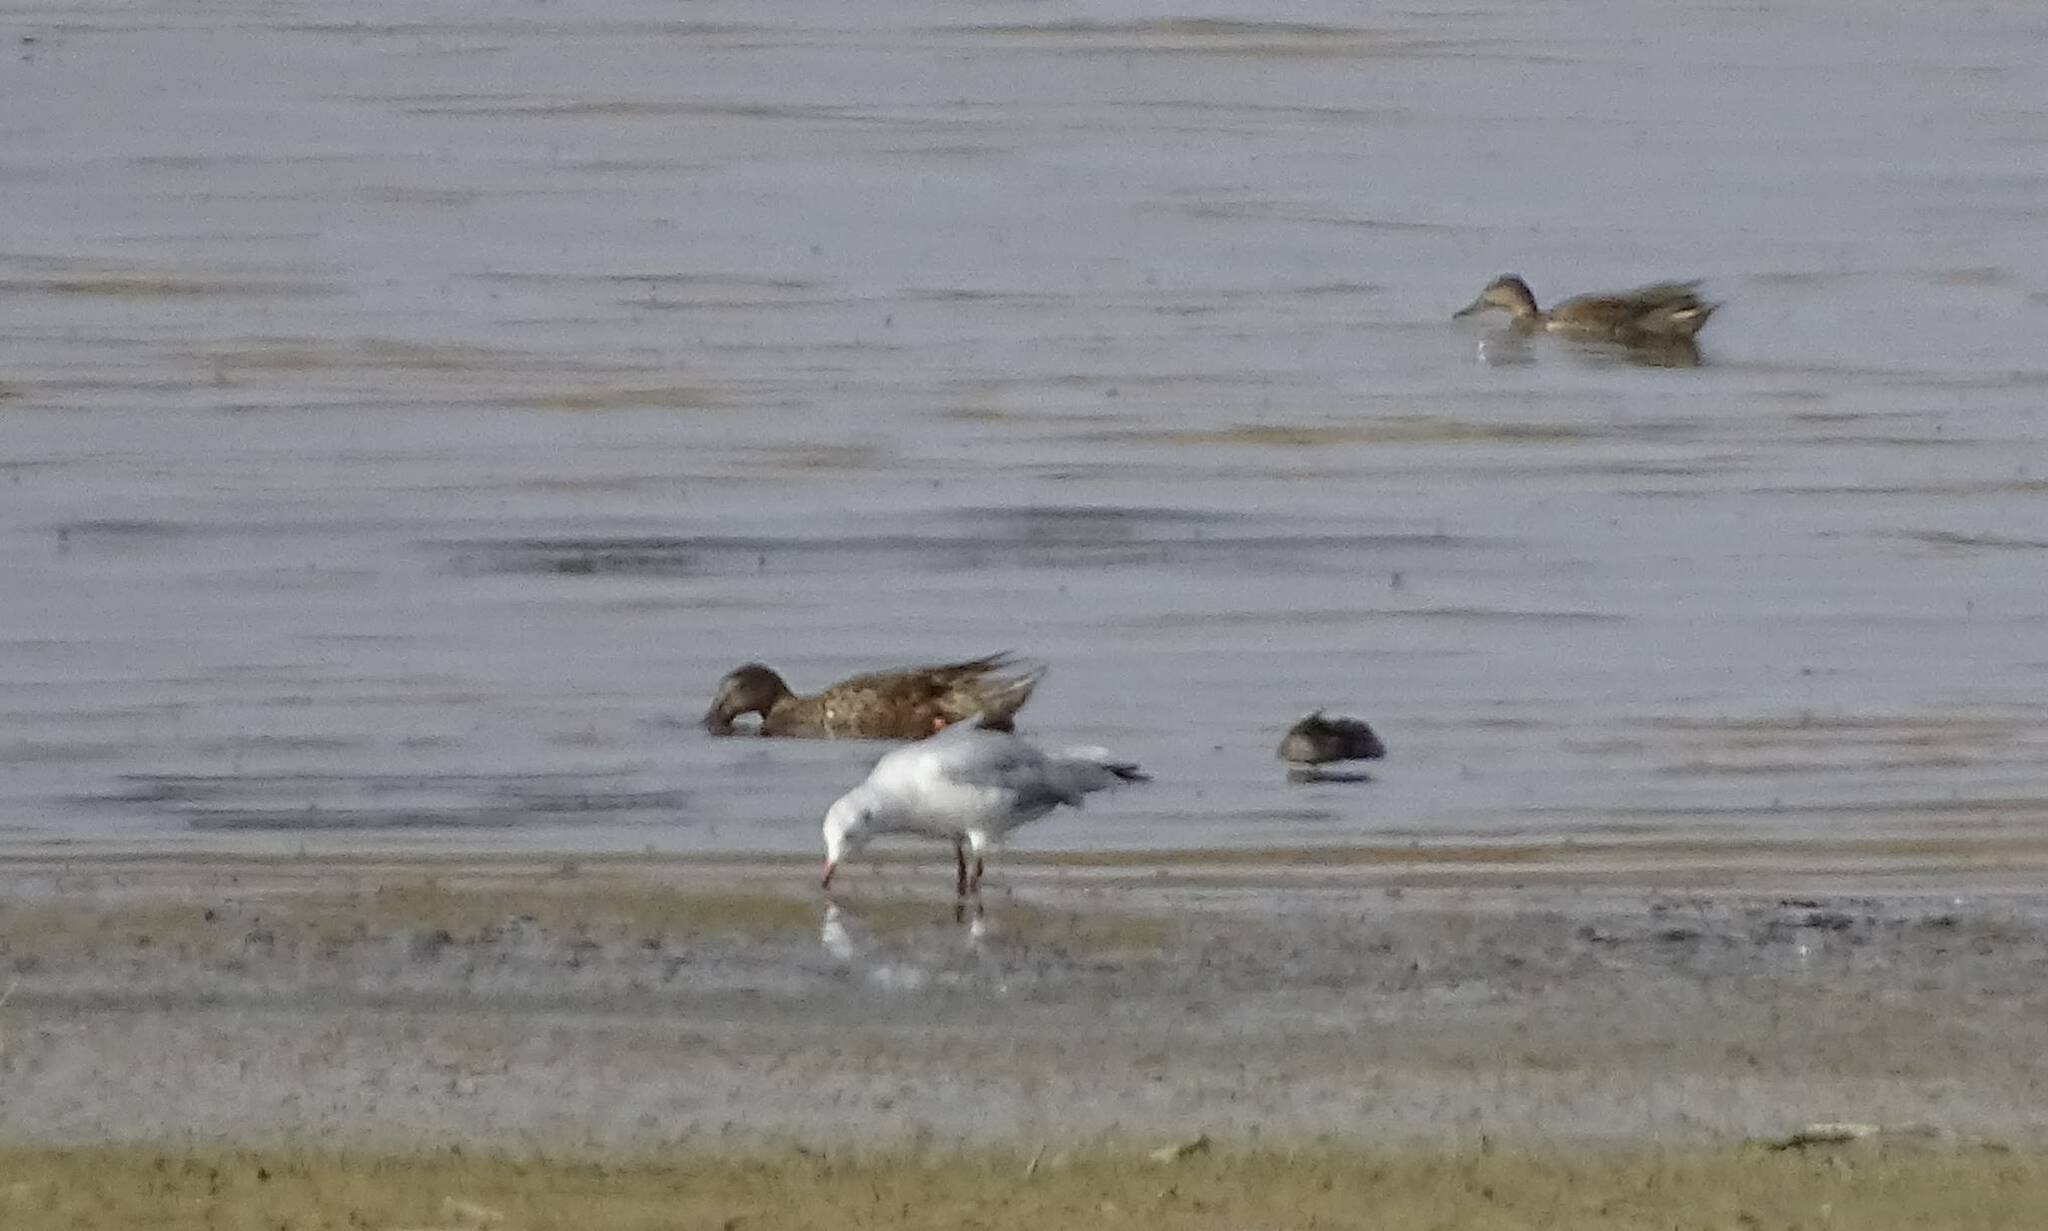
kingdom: Animalia
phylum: Chordata
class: Aves
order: Charadriiformes
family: Laridae
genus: Chroicocephalus
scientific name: Chroicocephalus ridibundus
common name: Black-headed gull
